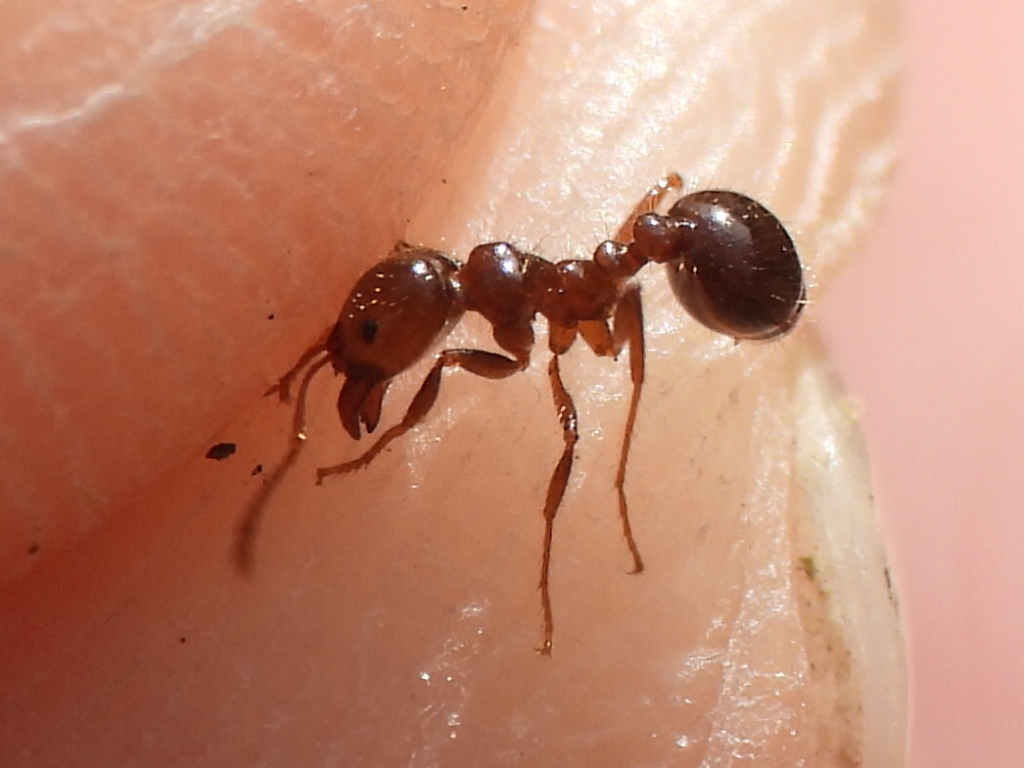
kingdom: Animalia
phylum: Arthropoda
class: Insecta
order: Hymenoptera
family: Formicidae
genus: Solenopsis
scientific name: Solenopsis invicta
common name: Red imported fire ant
